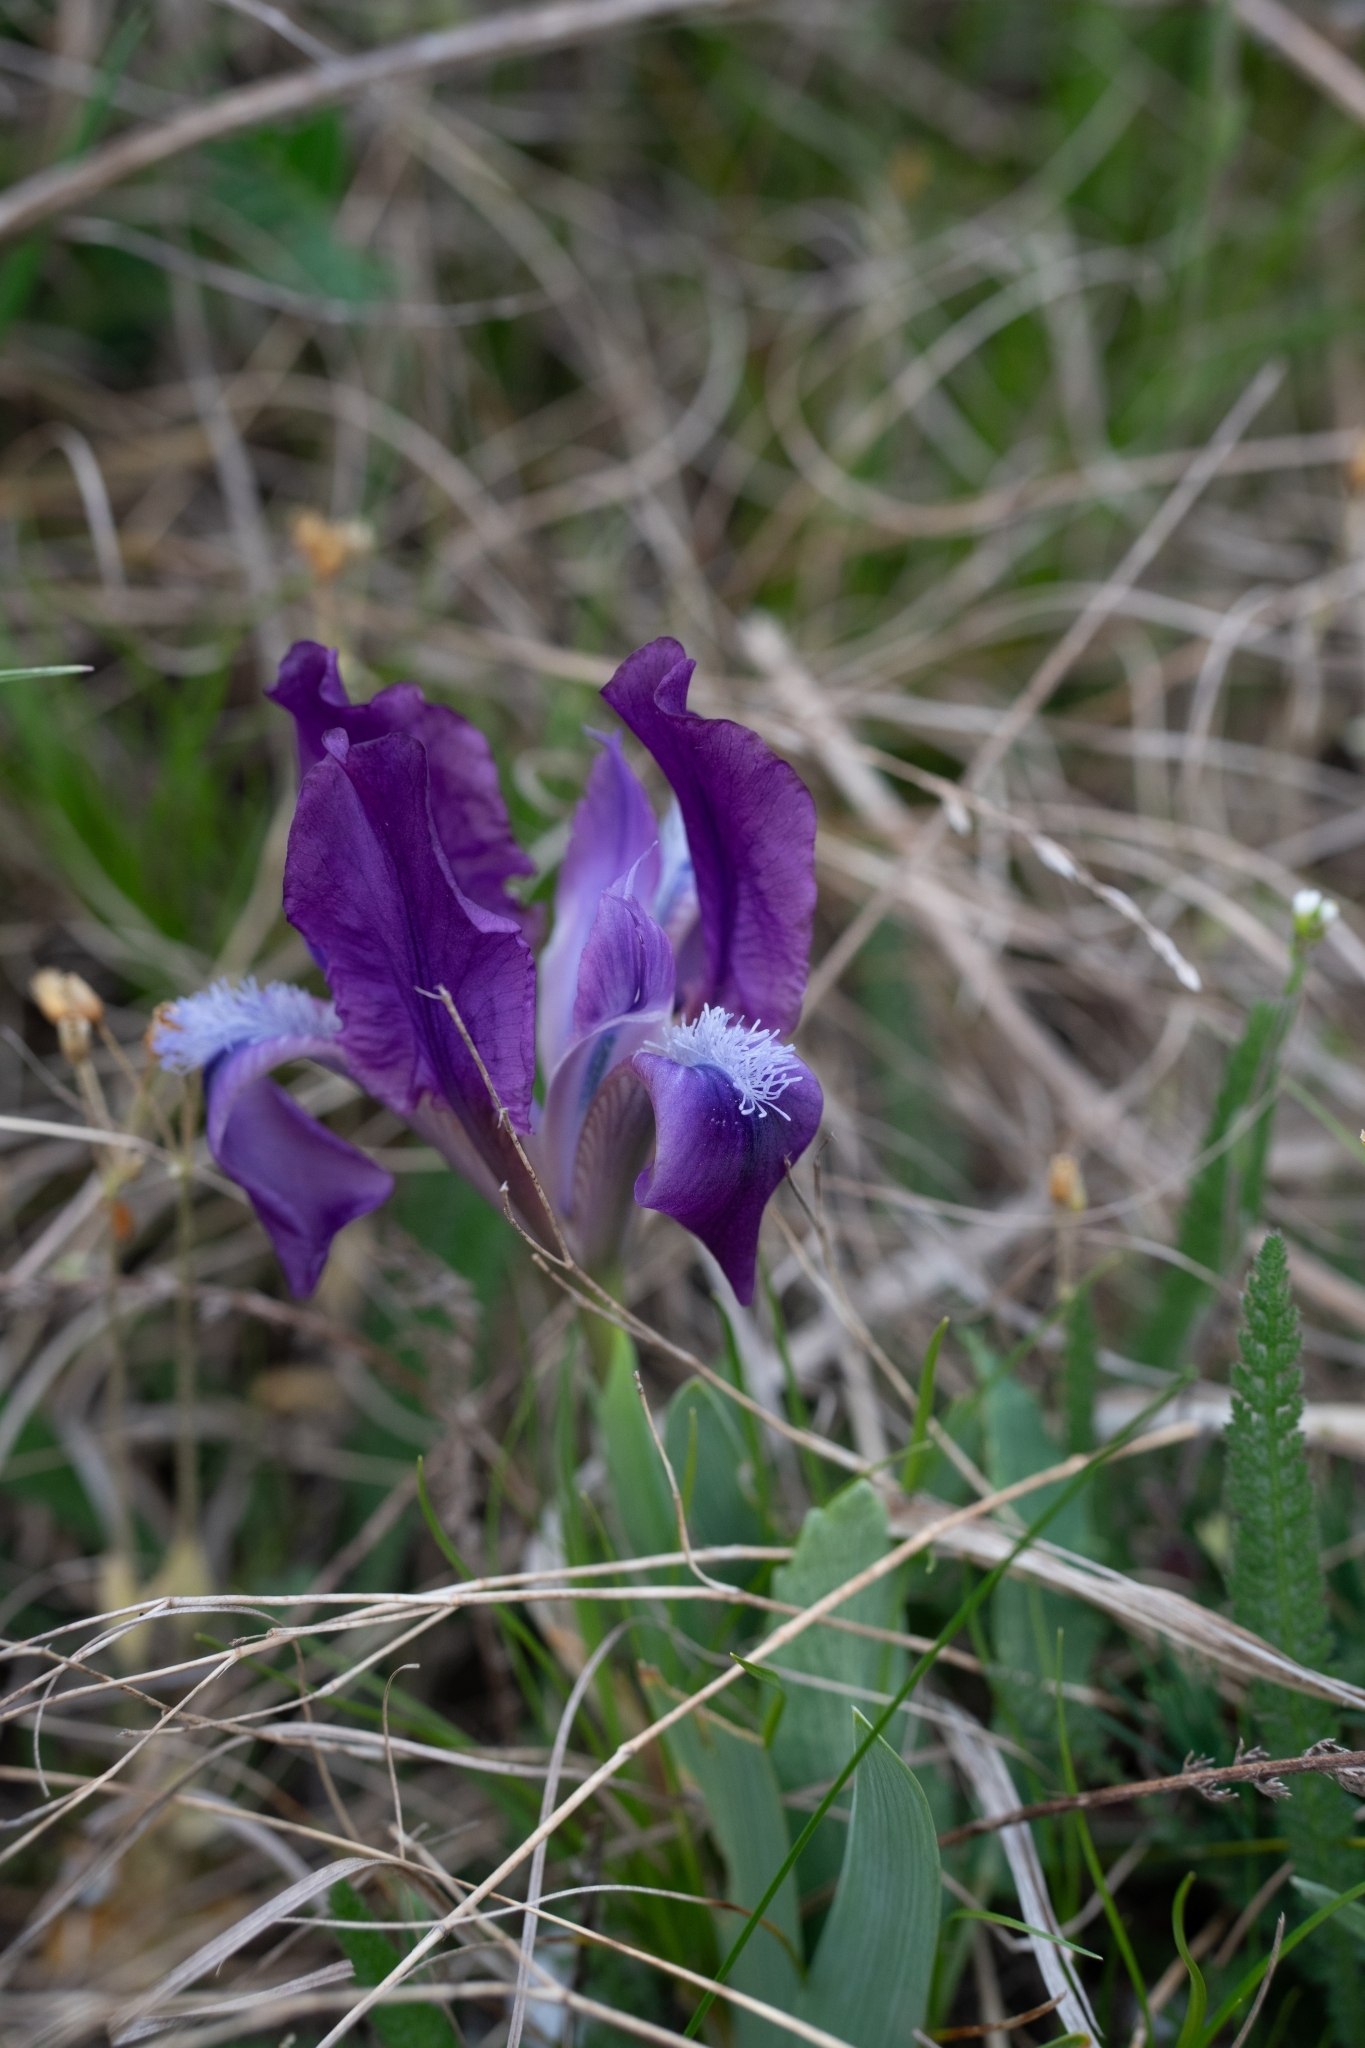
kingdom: Plantae
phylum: Tracheophyta
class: Liliopsida
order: Asparagales
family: Iridaceae
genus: Iris
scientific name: Iris pumila
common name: Dwarf iris
